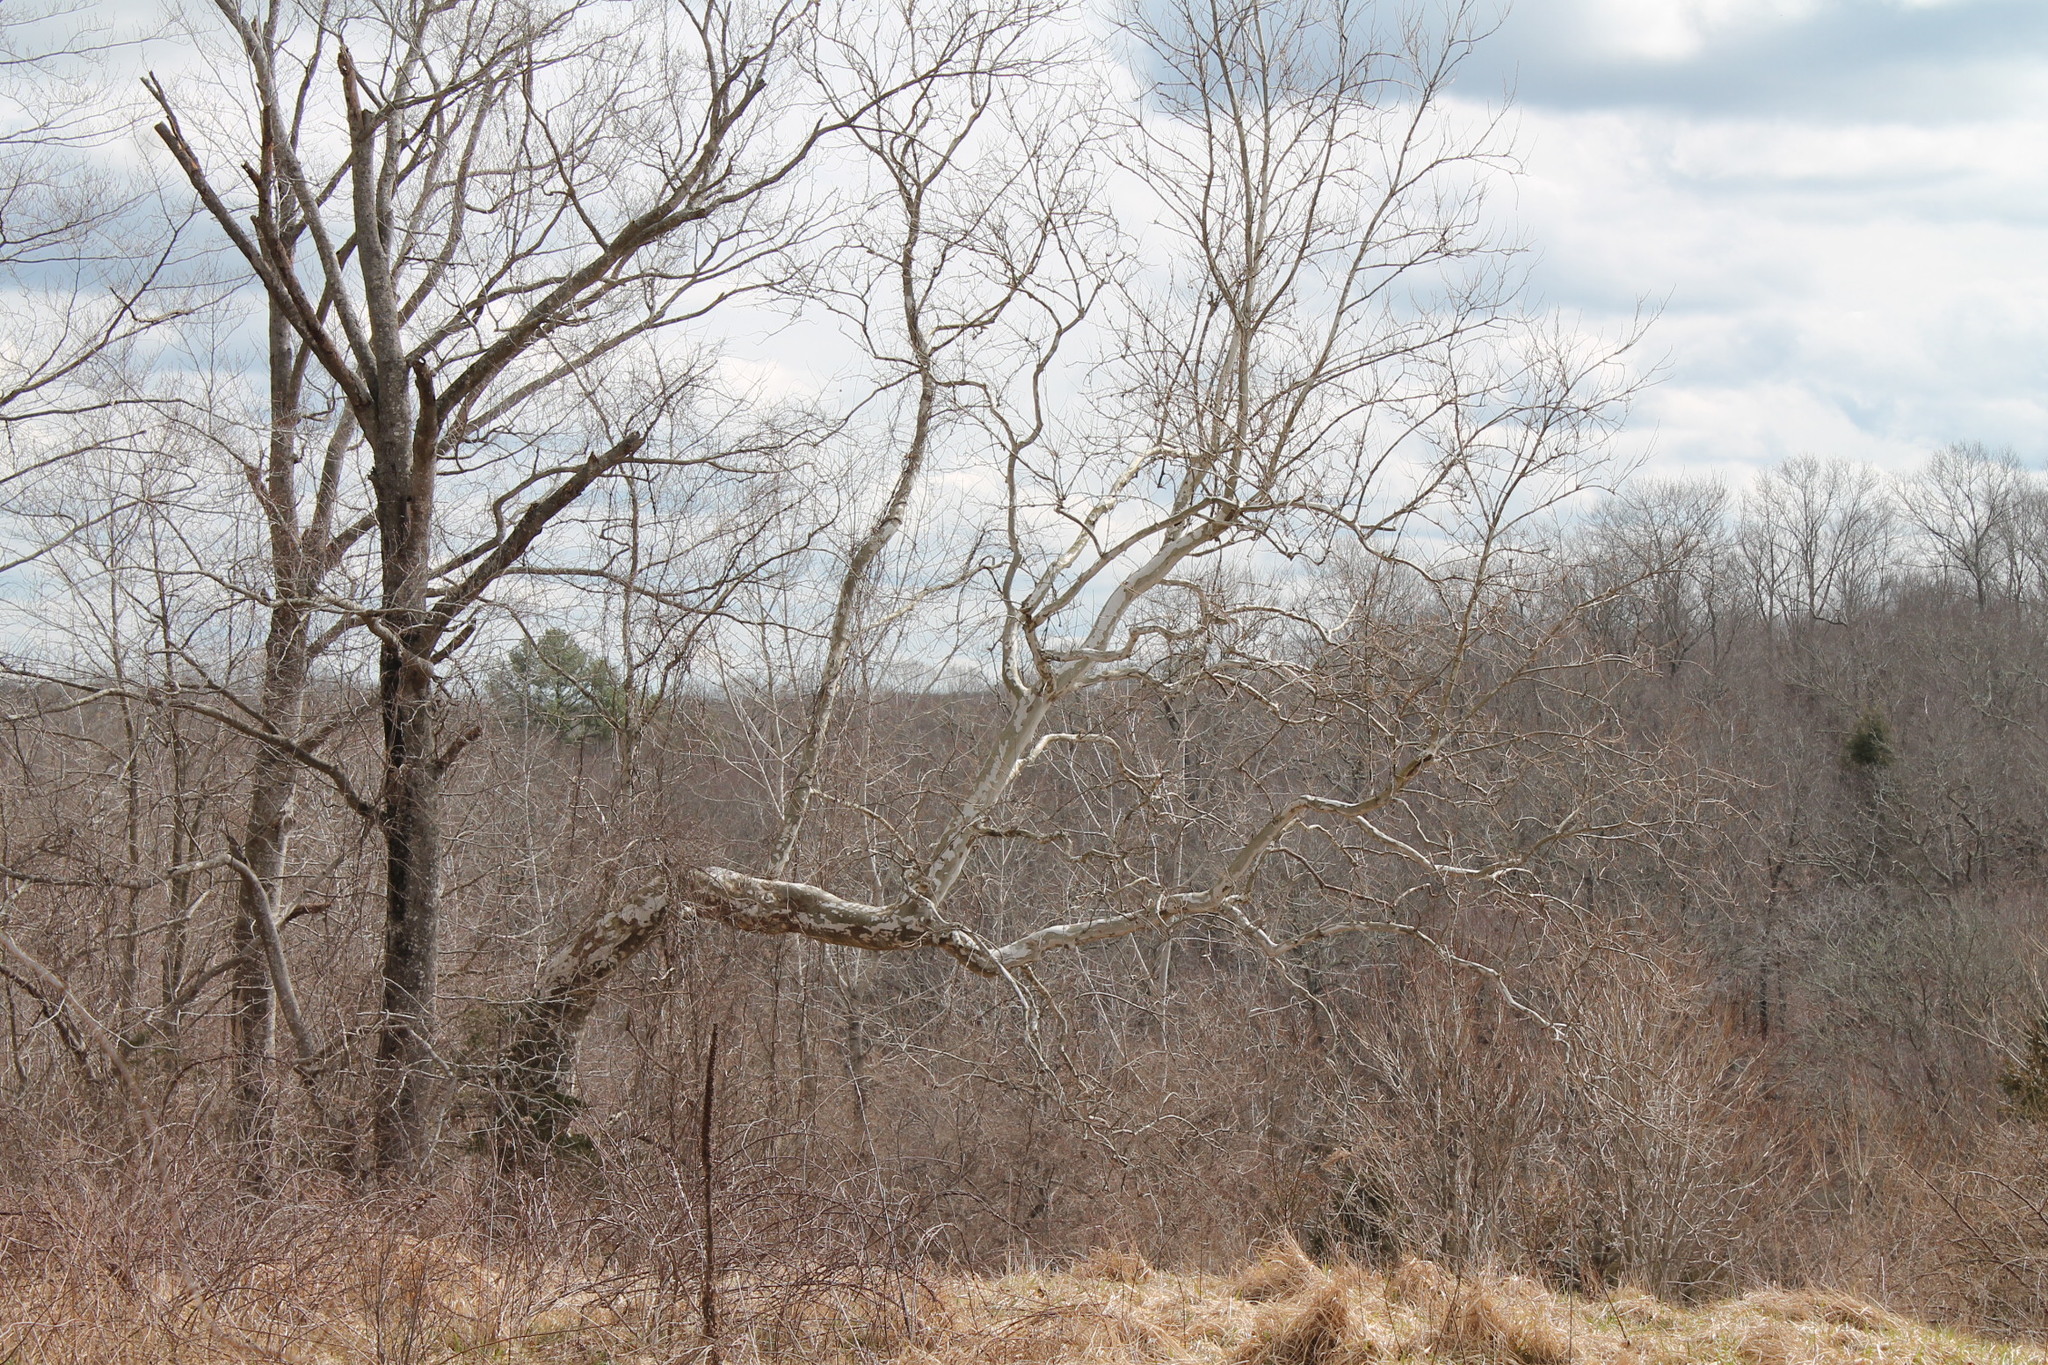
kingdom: Plantae
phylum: Tracheophyta
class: Magnoliopsida
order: Proteales
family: Platanaceae
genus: Platanus
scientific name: Platanus occidentalis
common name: American sycamore
